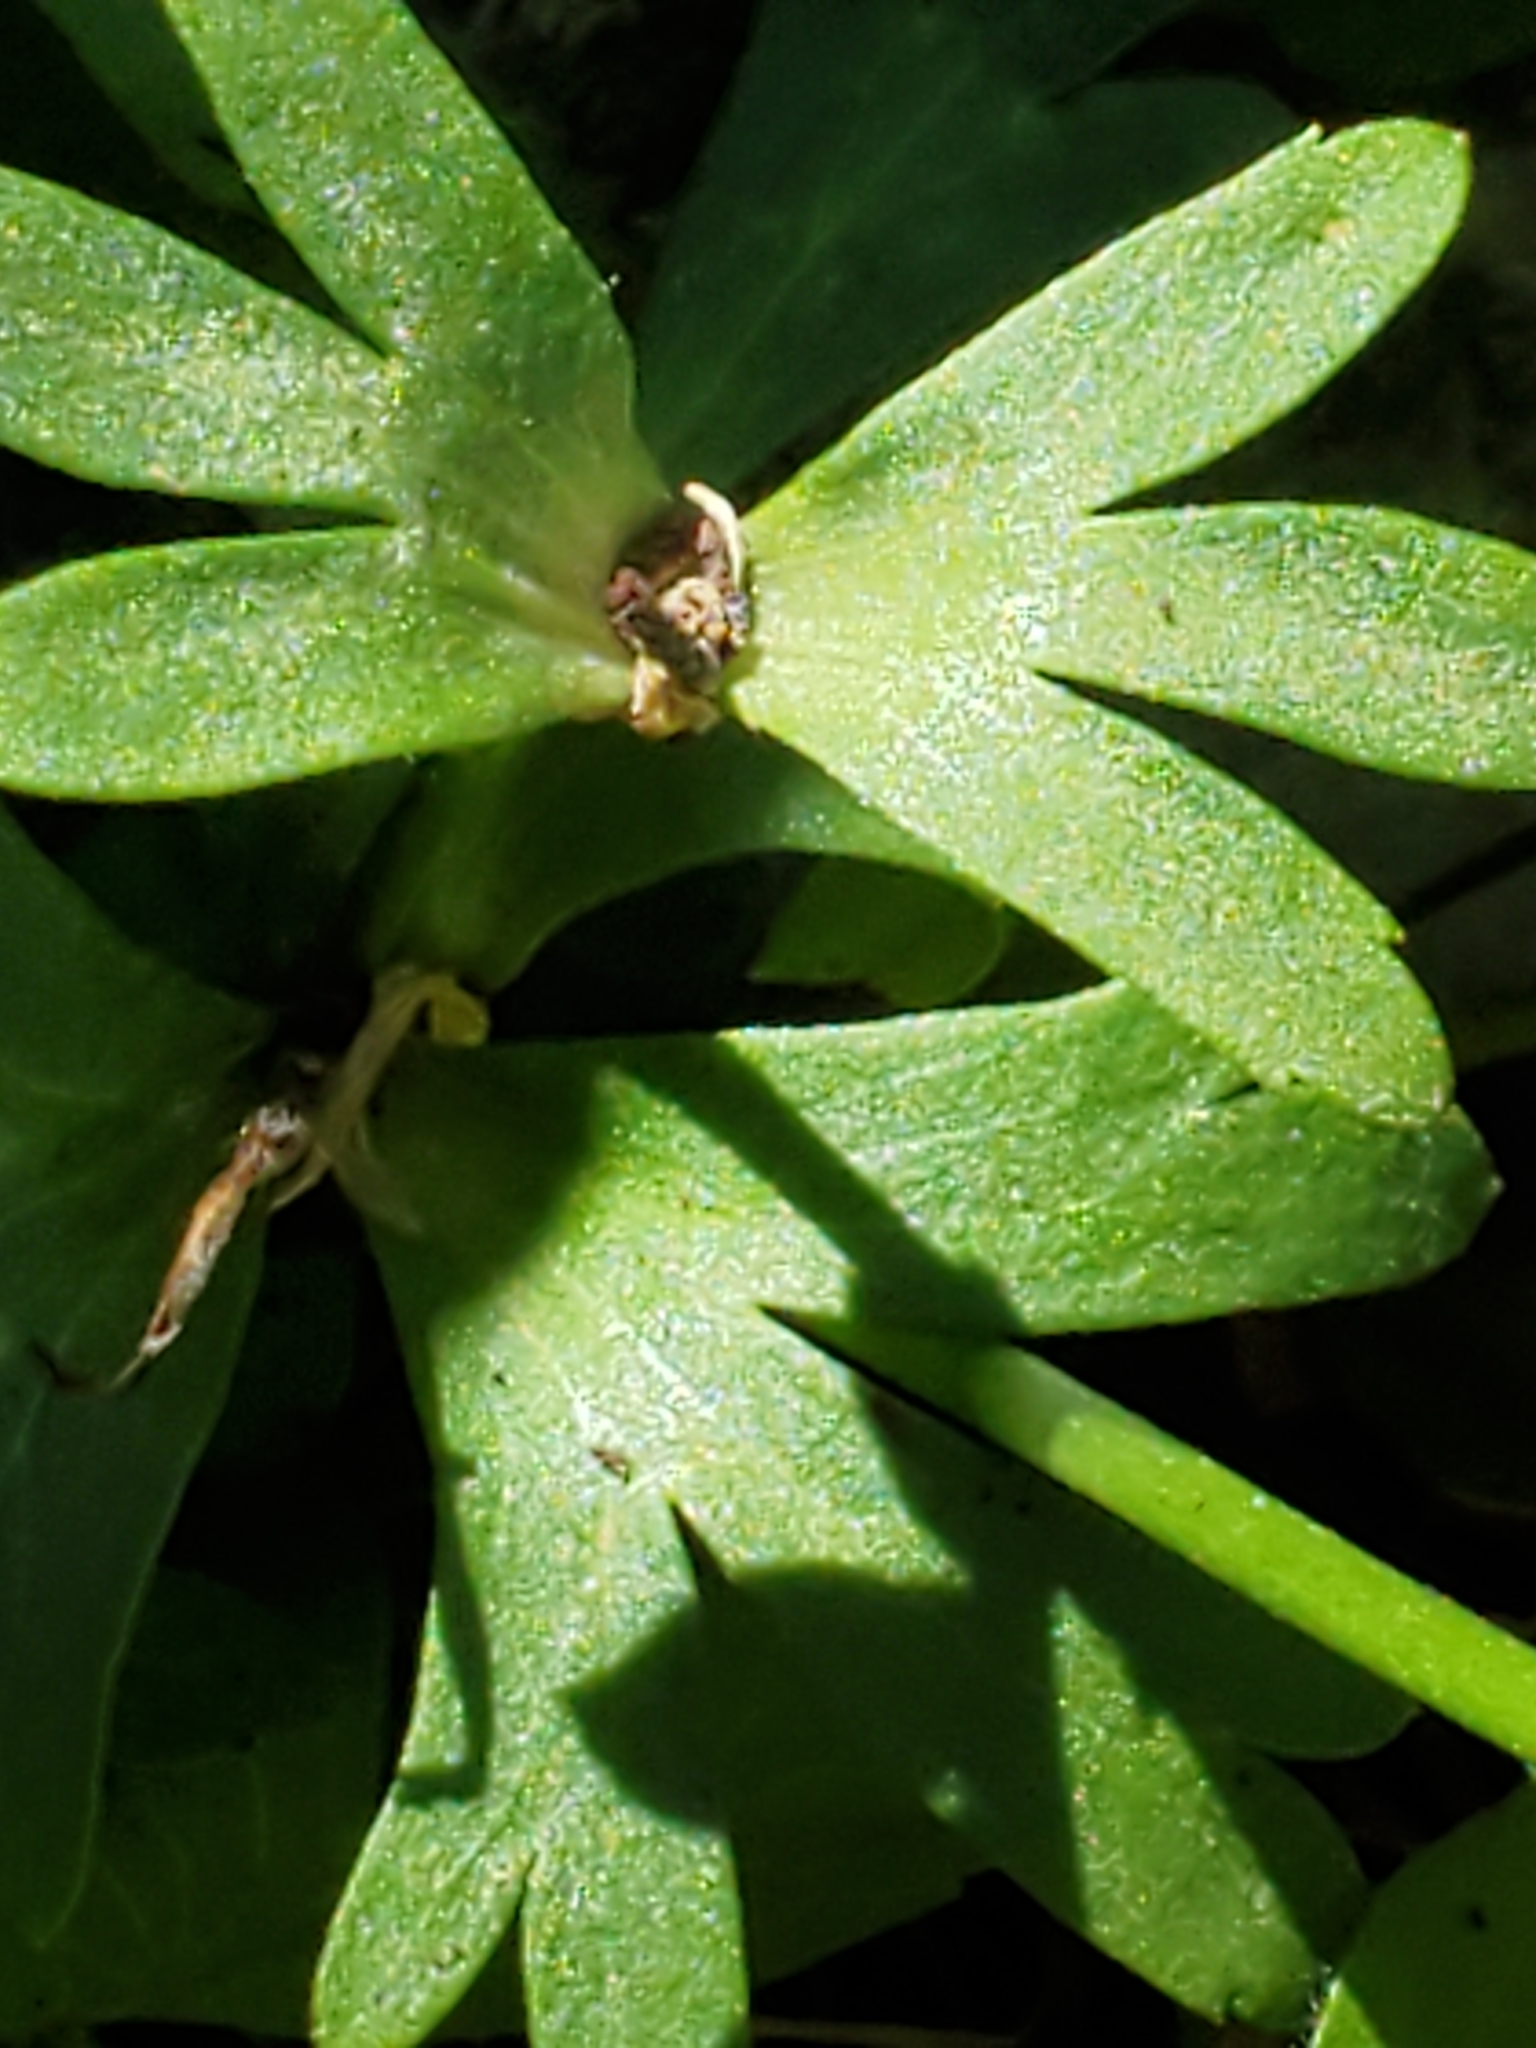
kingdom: Plantae
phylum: Tracheophyta
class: Magnoliopsida
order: Ranunculales
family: Ranunculaceae
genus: Anemone
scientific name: Anemone edwardsiana
